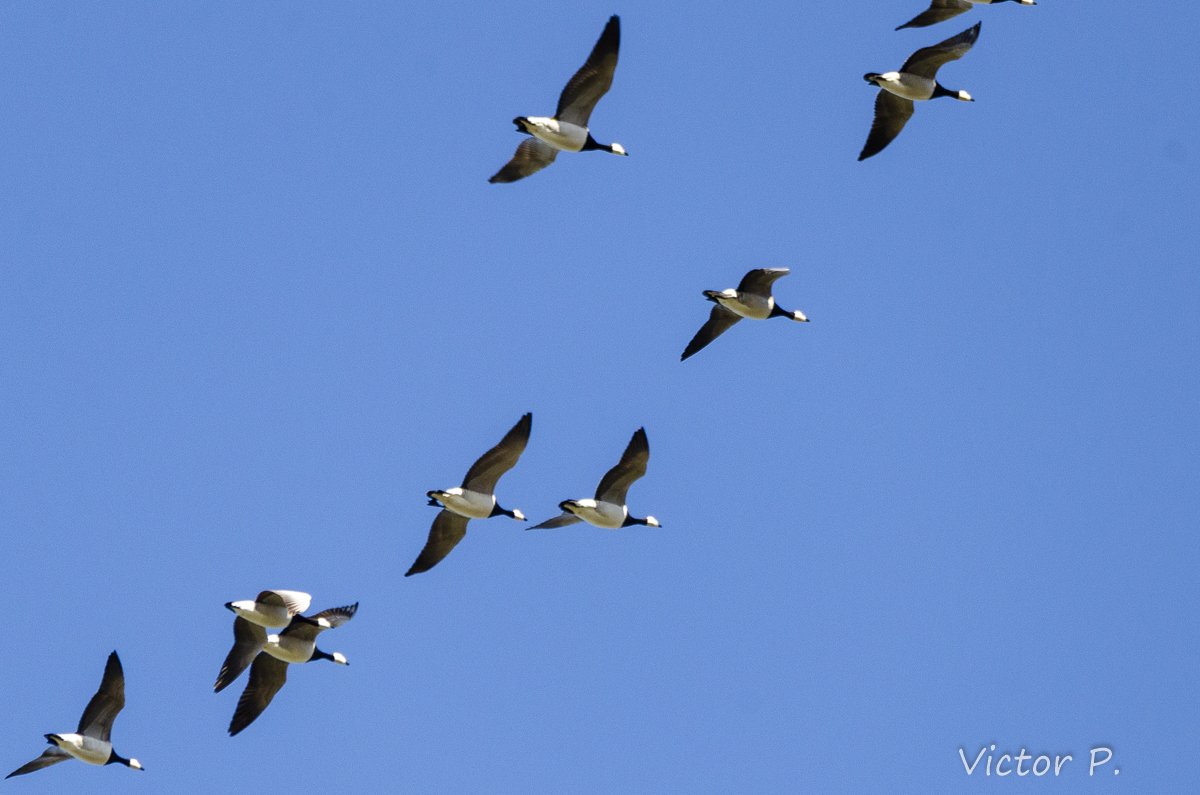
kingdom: Animalia
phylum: Chordata
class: Aves
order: Anseriformes
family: Anatidae
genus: Branta
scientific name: Branta leucopsis
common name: Barnacle goose
